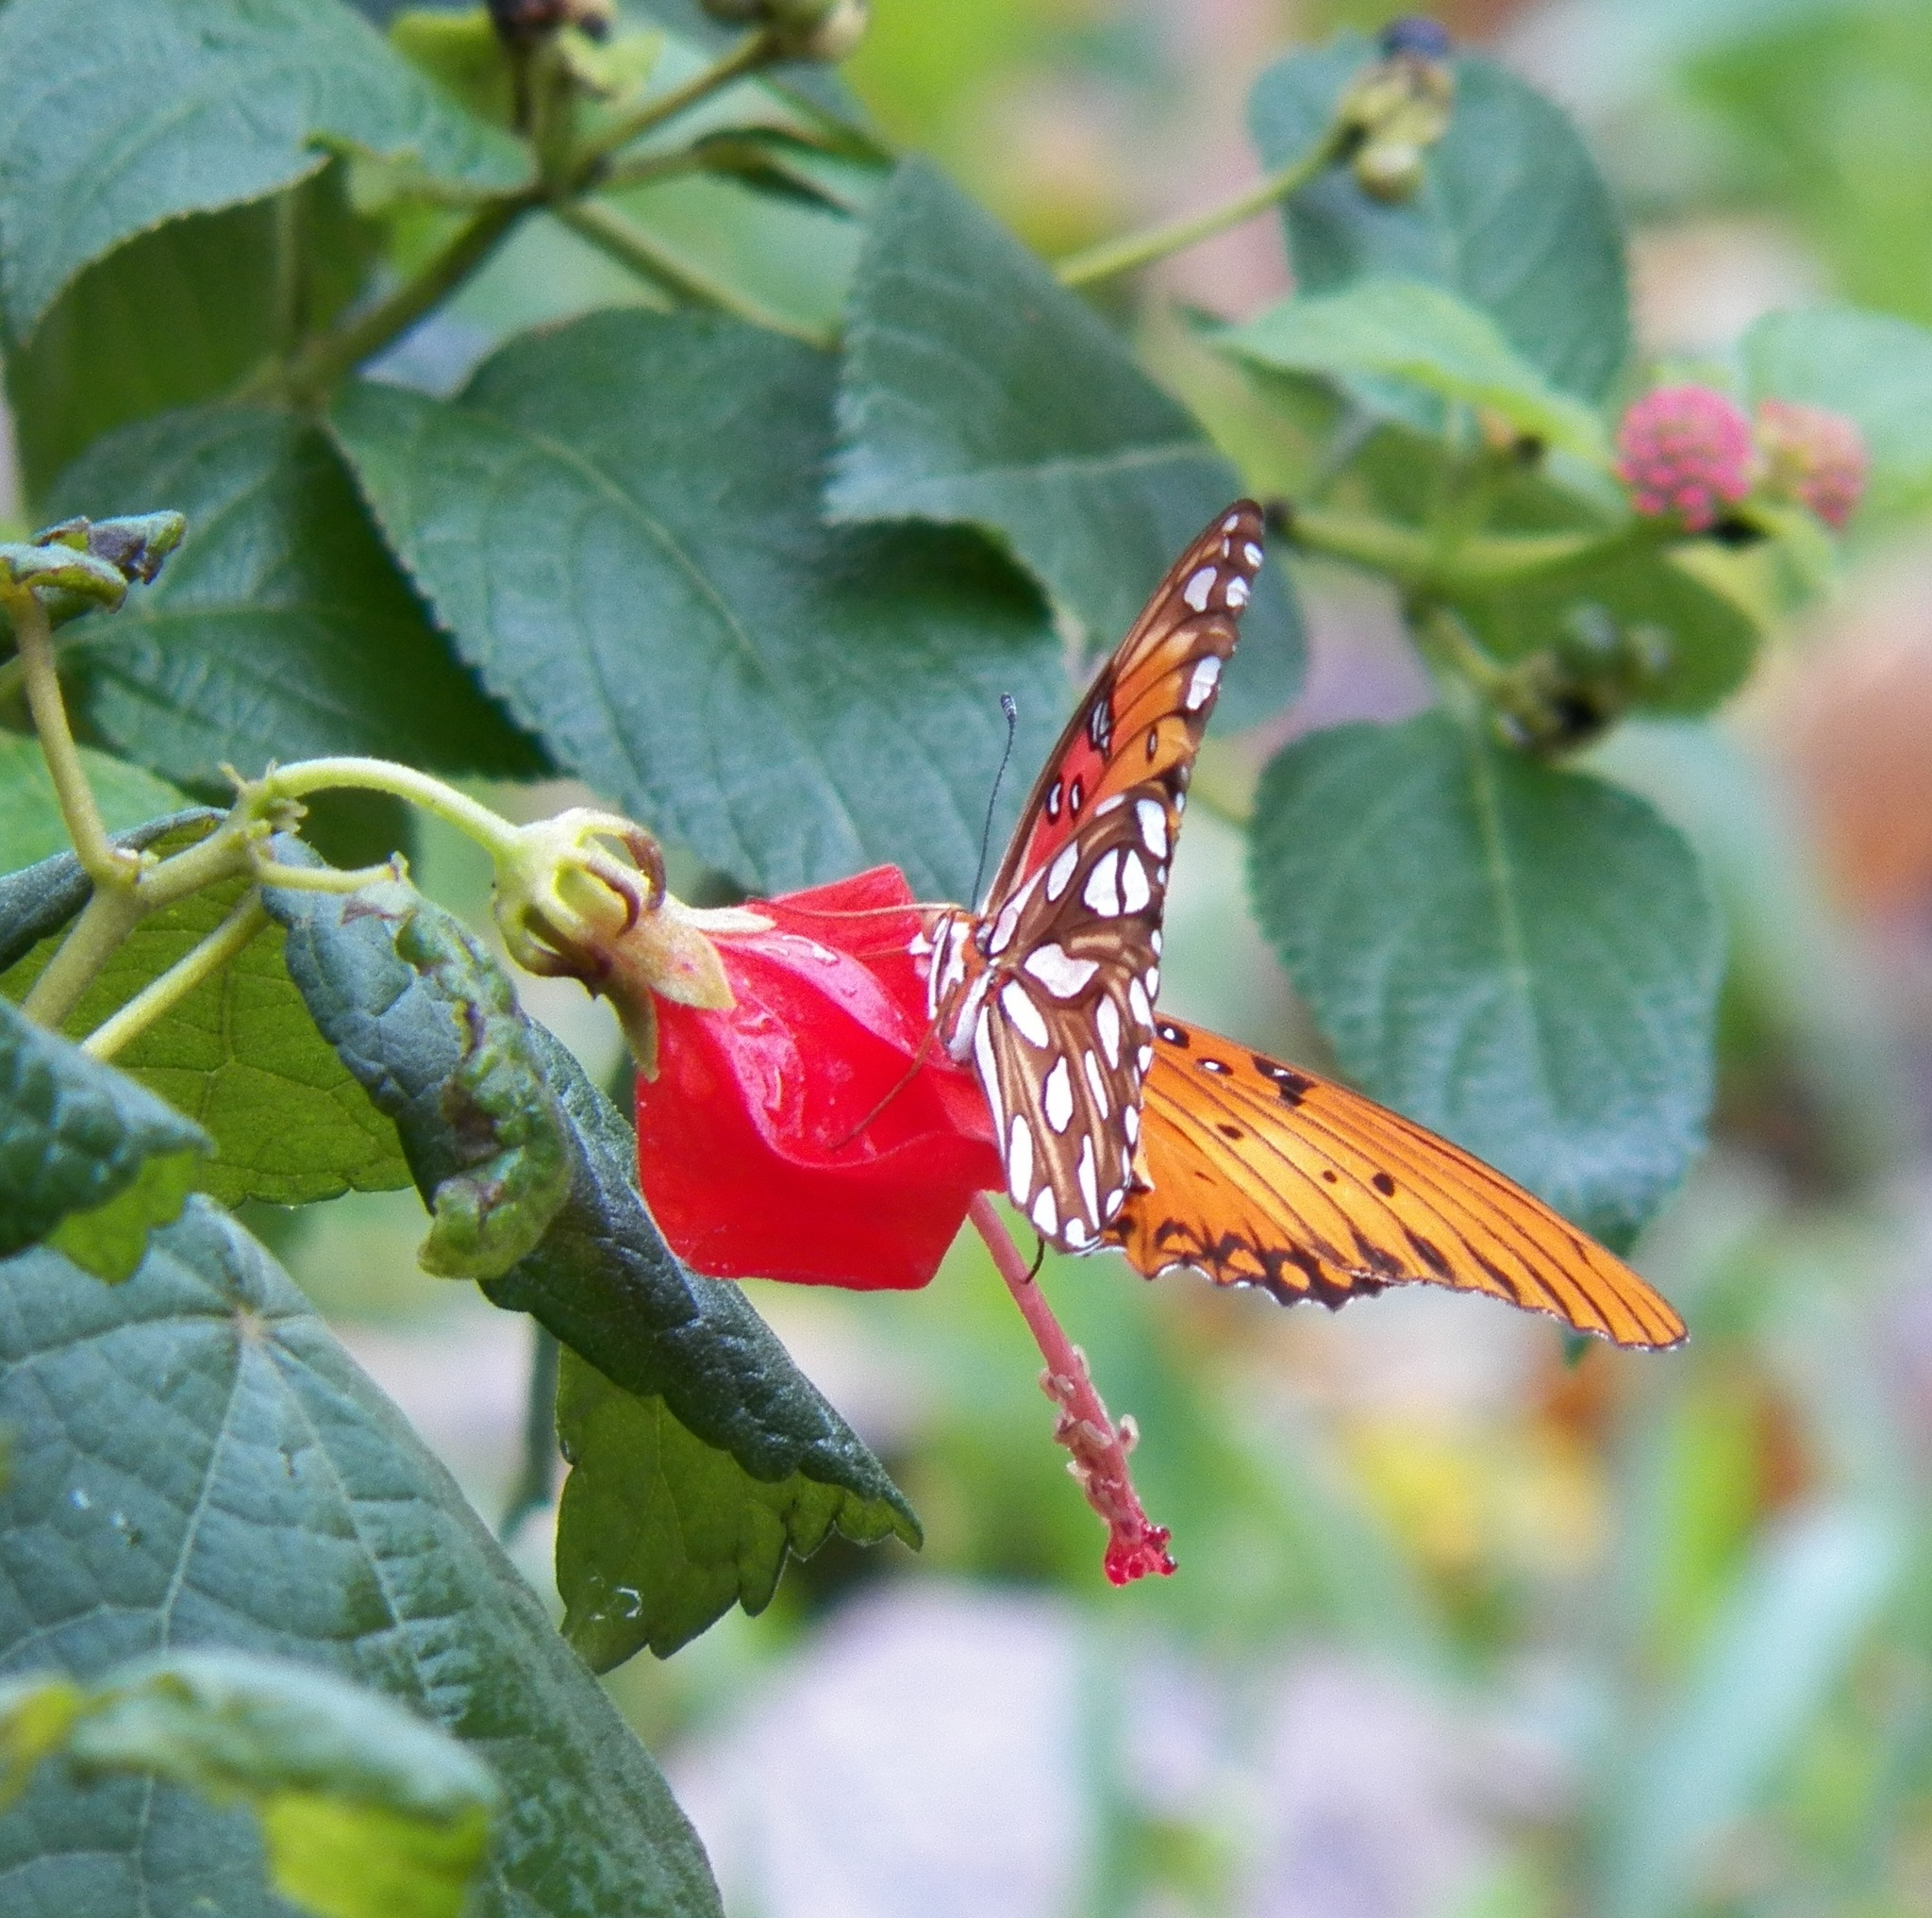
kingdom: Animalia
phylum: Arthropoda
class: Insecta
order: Lepidoptera
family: Nymphalidae
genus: Dione
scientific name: Dione vanillae
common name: Gulf fritillary
